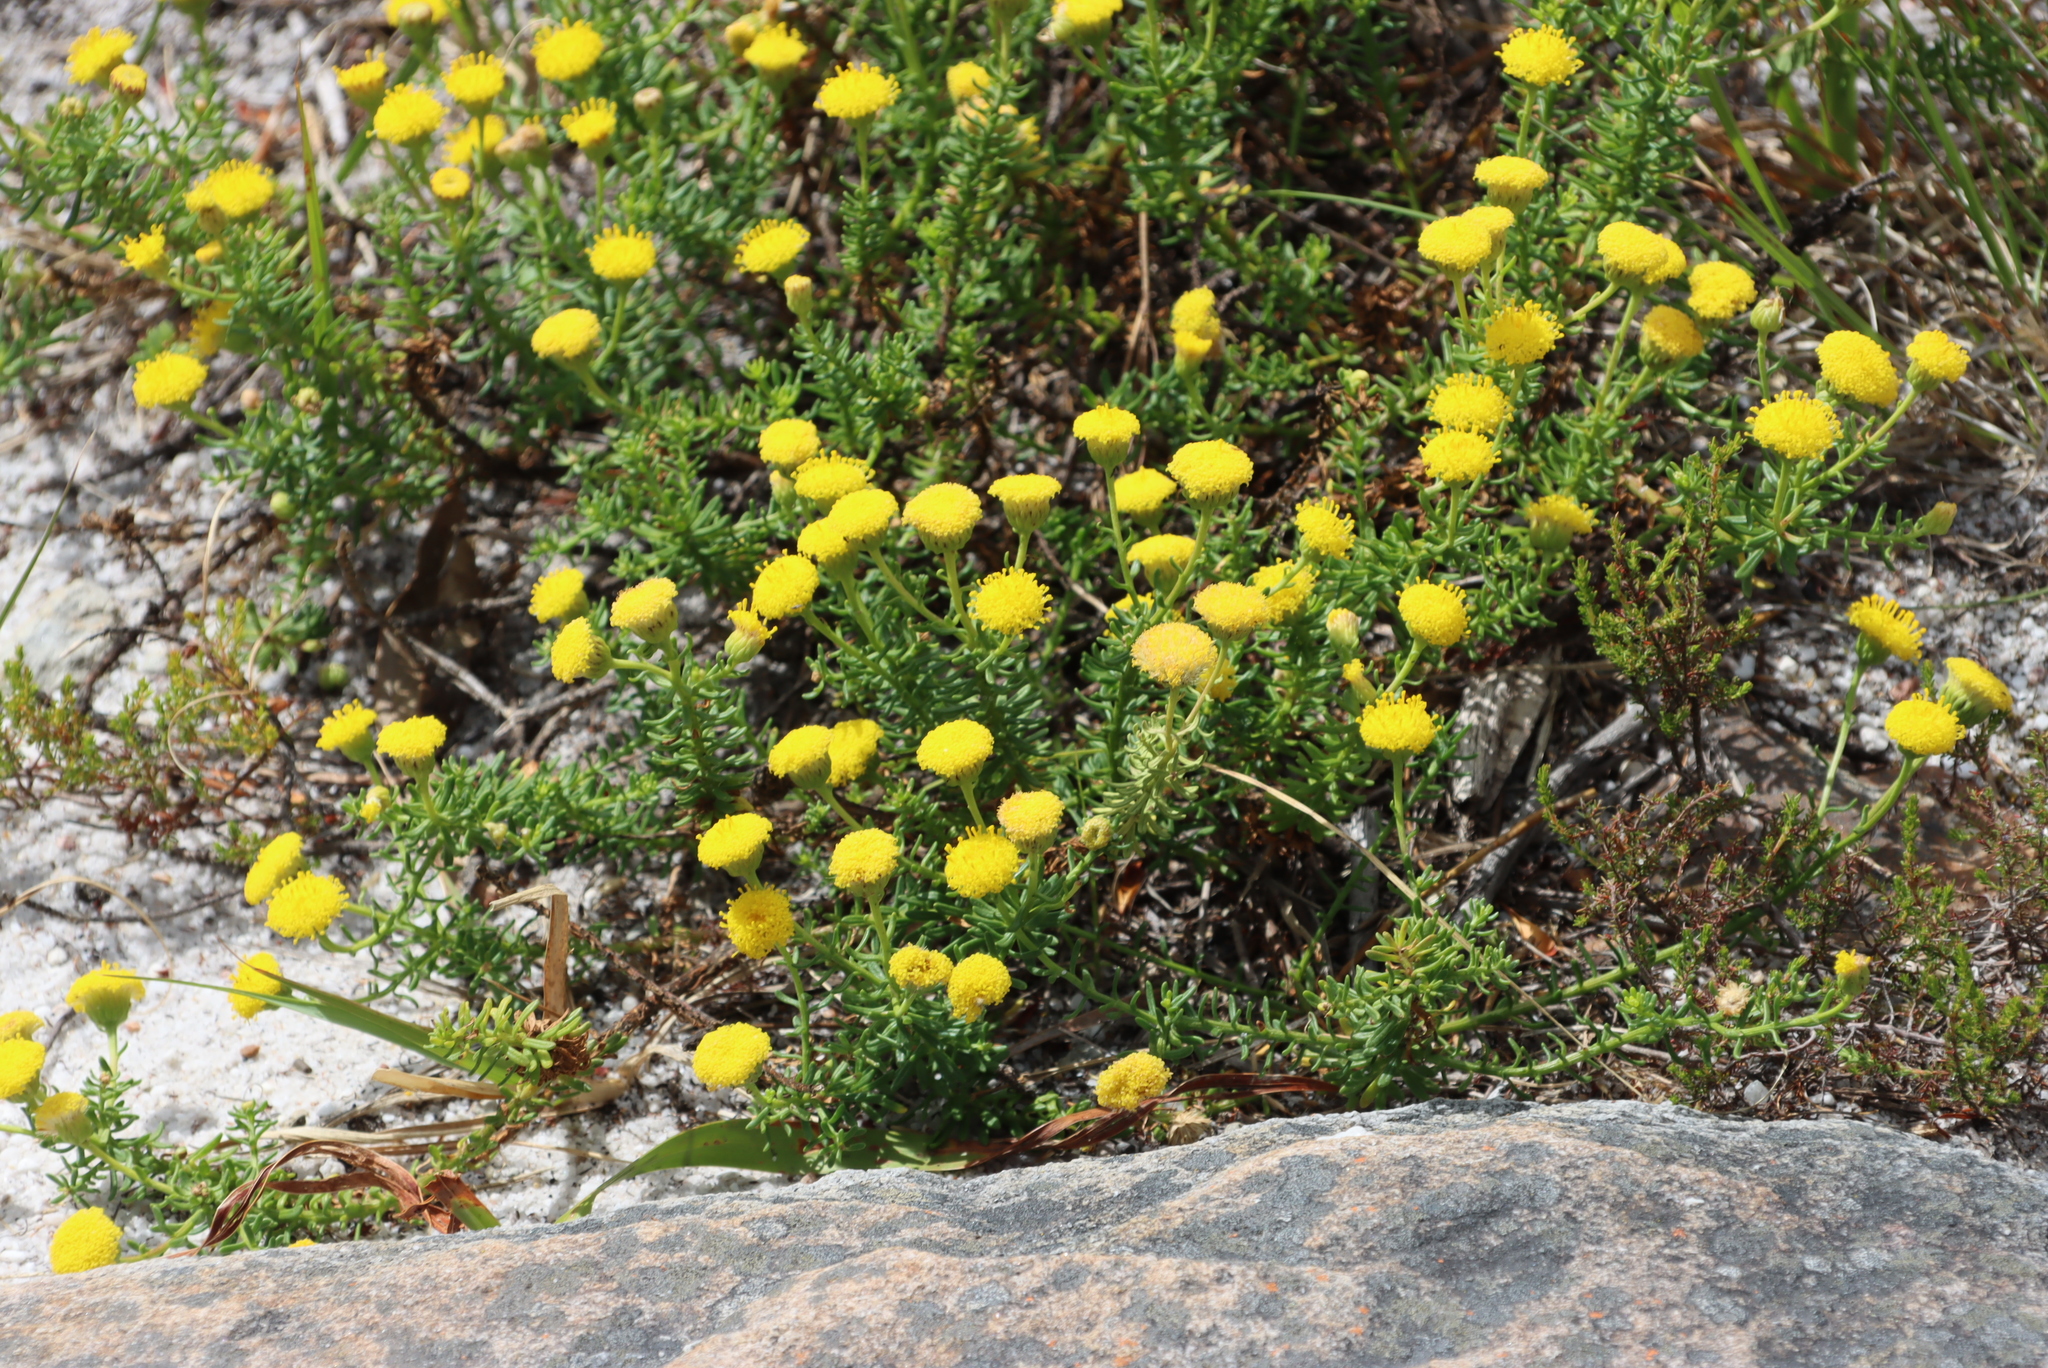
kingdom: Plantae
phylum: Tracheophyta
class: Magnoliopsida
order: Asterales
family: Asteraceae
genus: Chrysocoma
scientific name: Chrysocoma cernua
